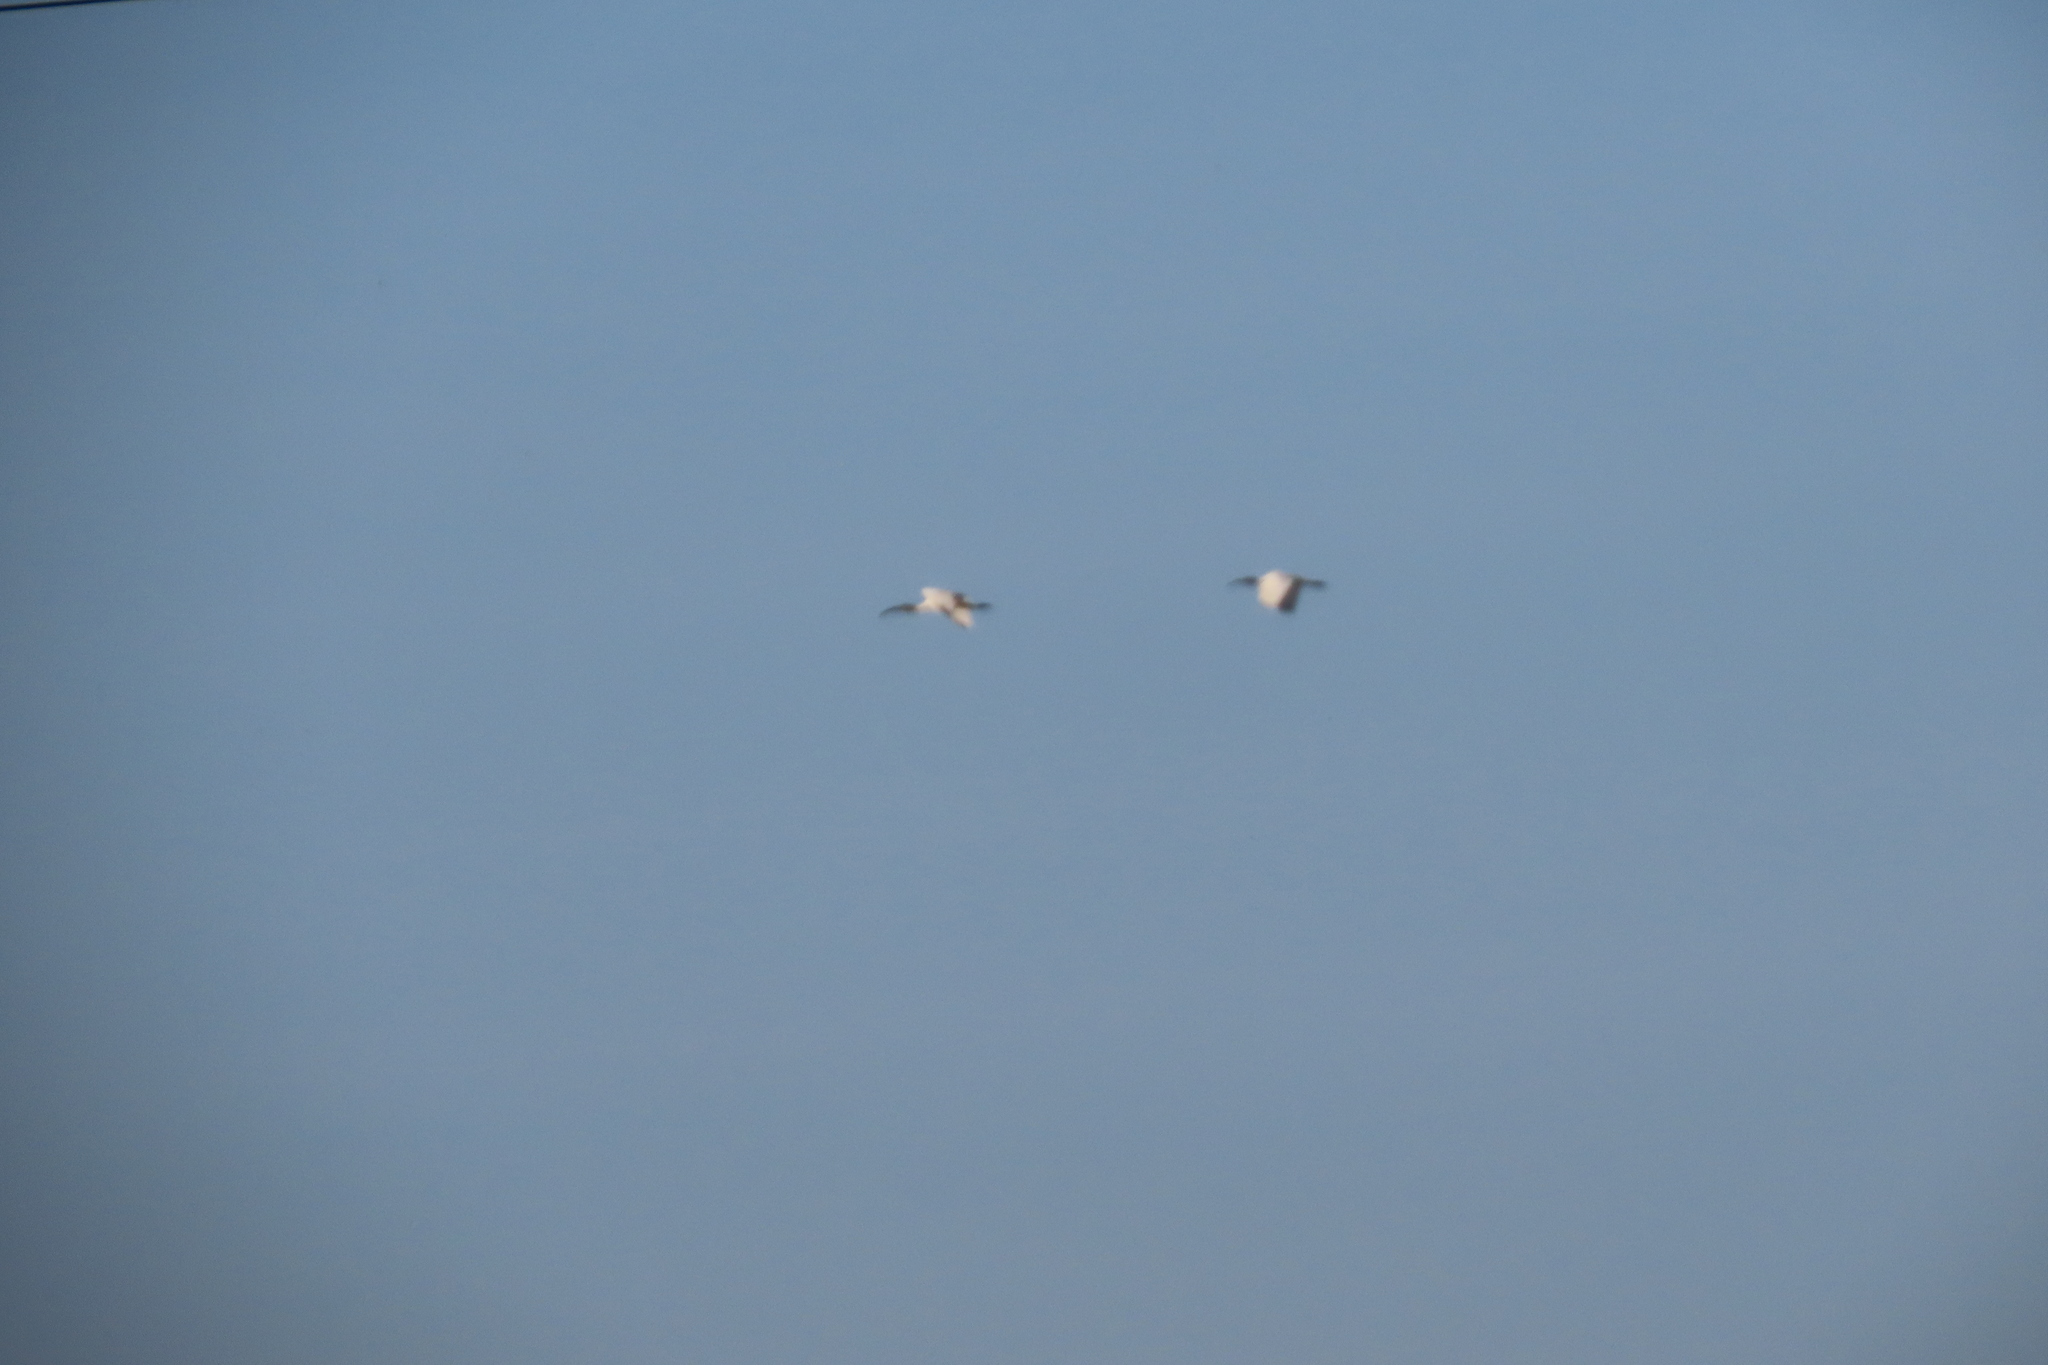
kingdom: Animalia
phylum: Chordata
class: Aves
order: Pelecaniformes
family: Threskiornithidae
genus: Threskiornis
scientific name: Threskiornis melanocephalus
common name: Black-headed ibis
